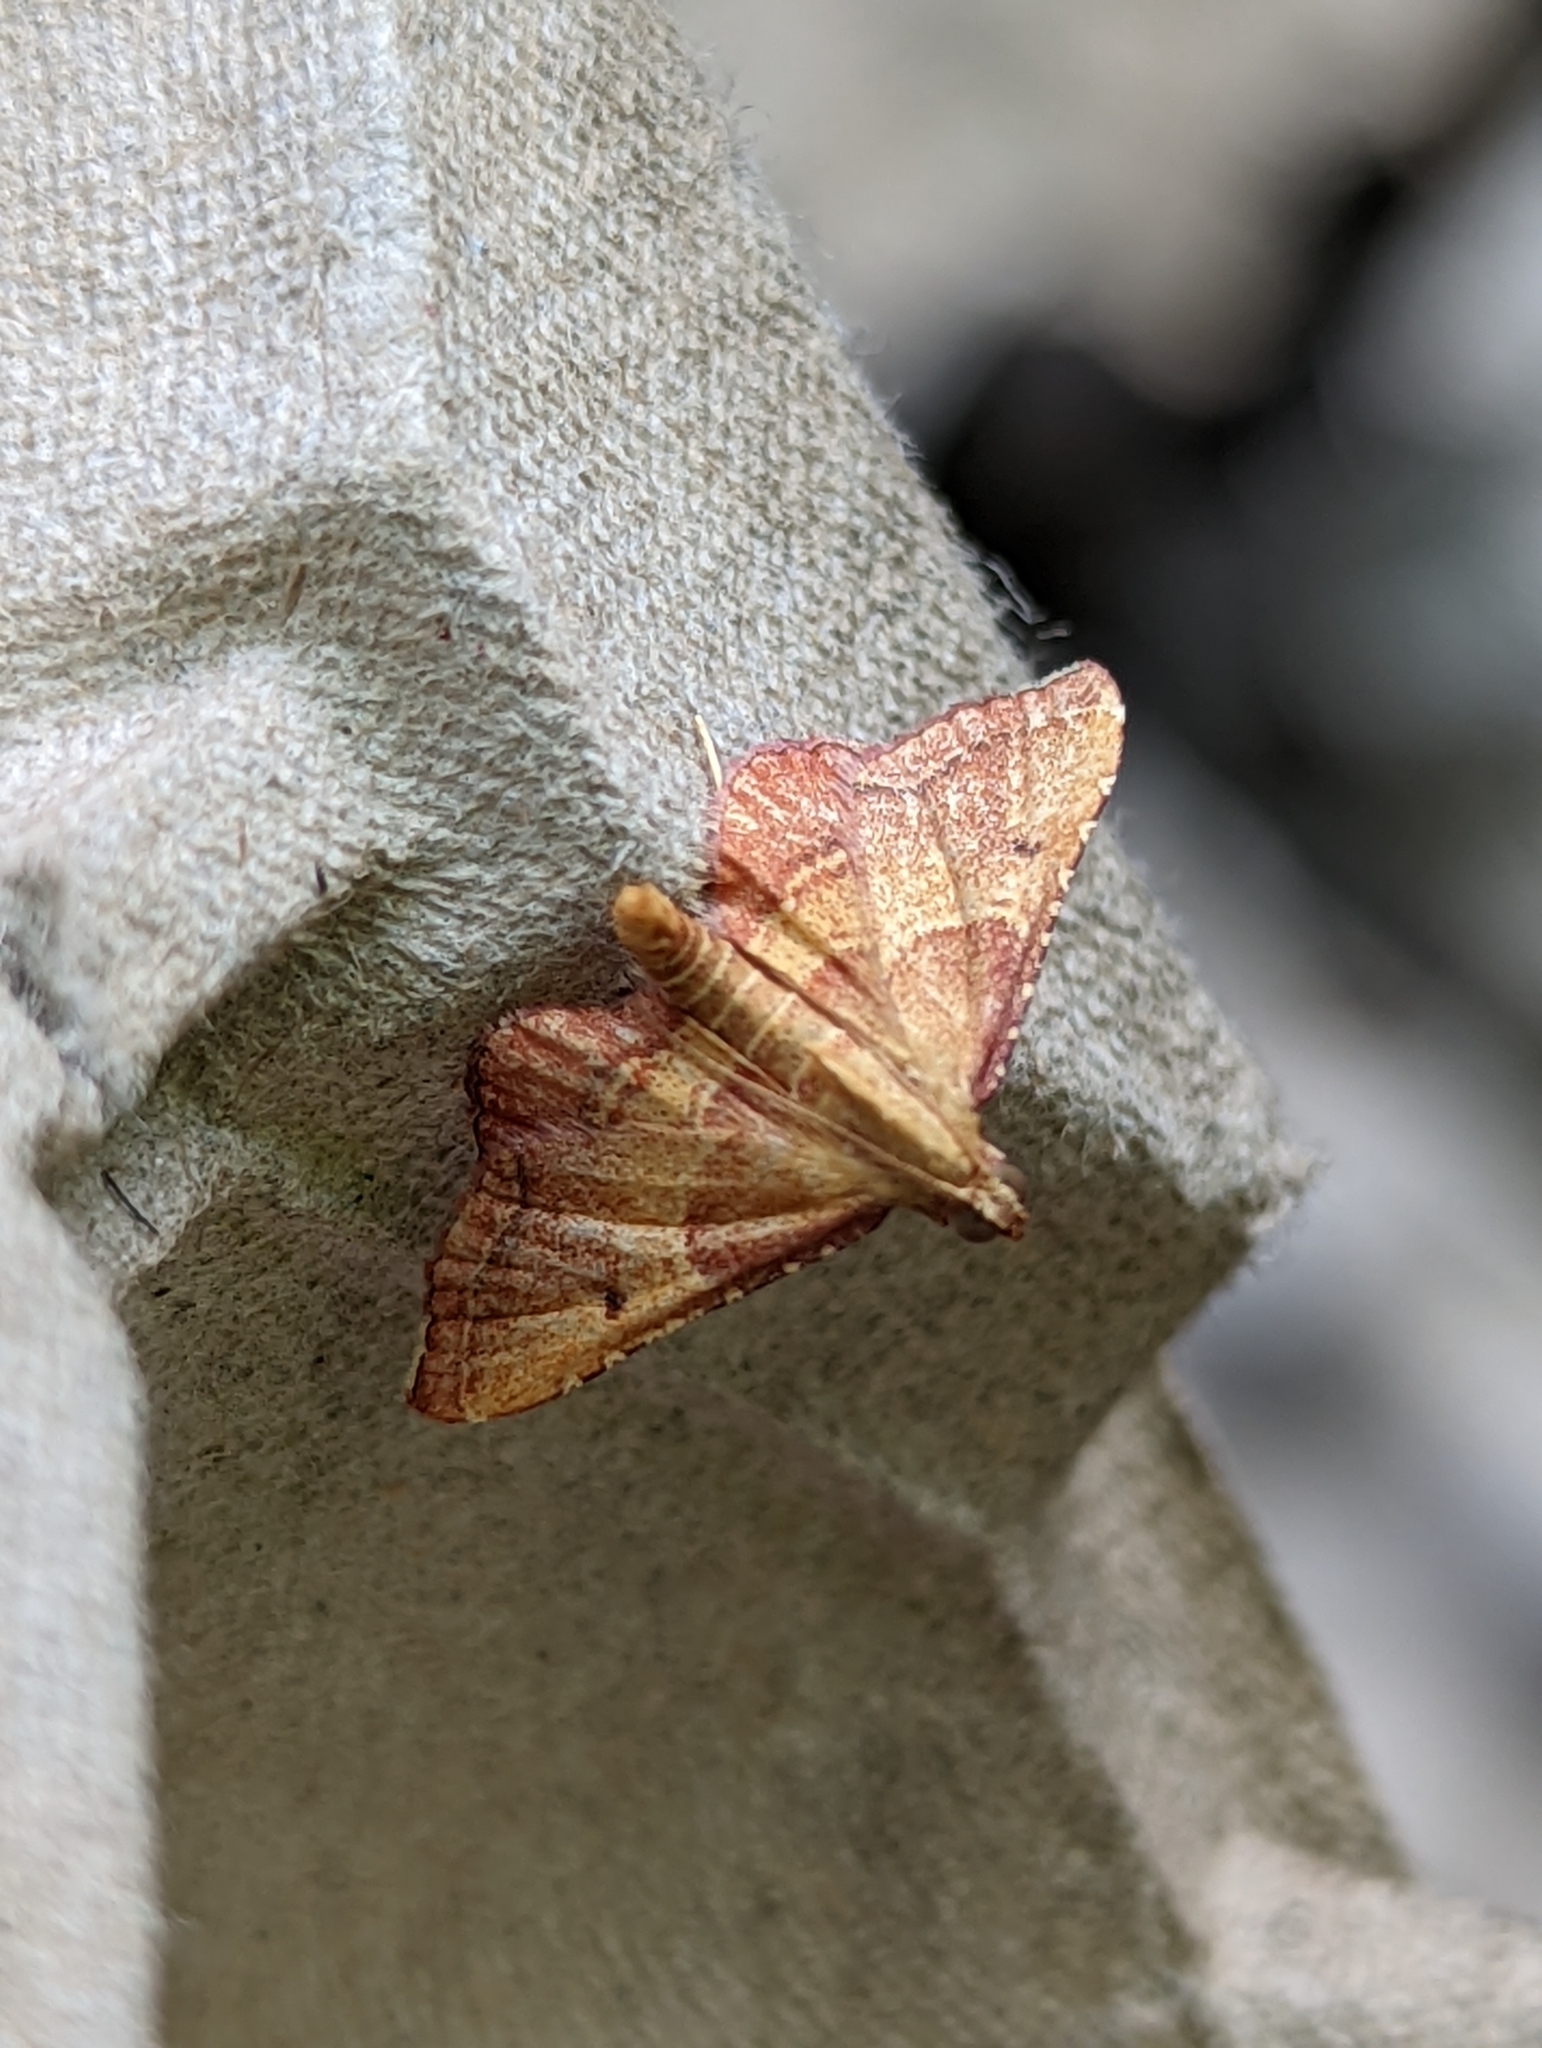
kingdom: Animalia
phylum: Arthropoda
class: Insecta
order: Lepidoptera
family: Pyralidae
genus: Endotricha
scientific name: Endotricha flammealis
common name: Rosy tabby
